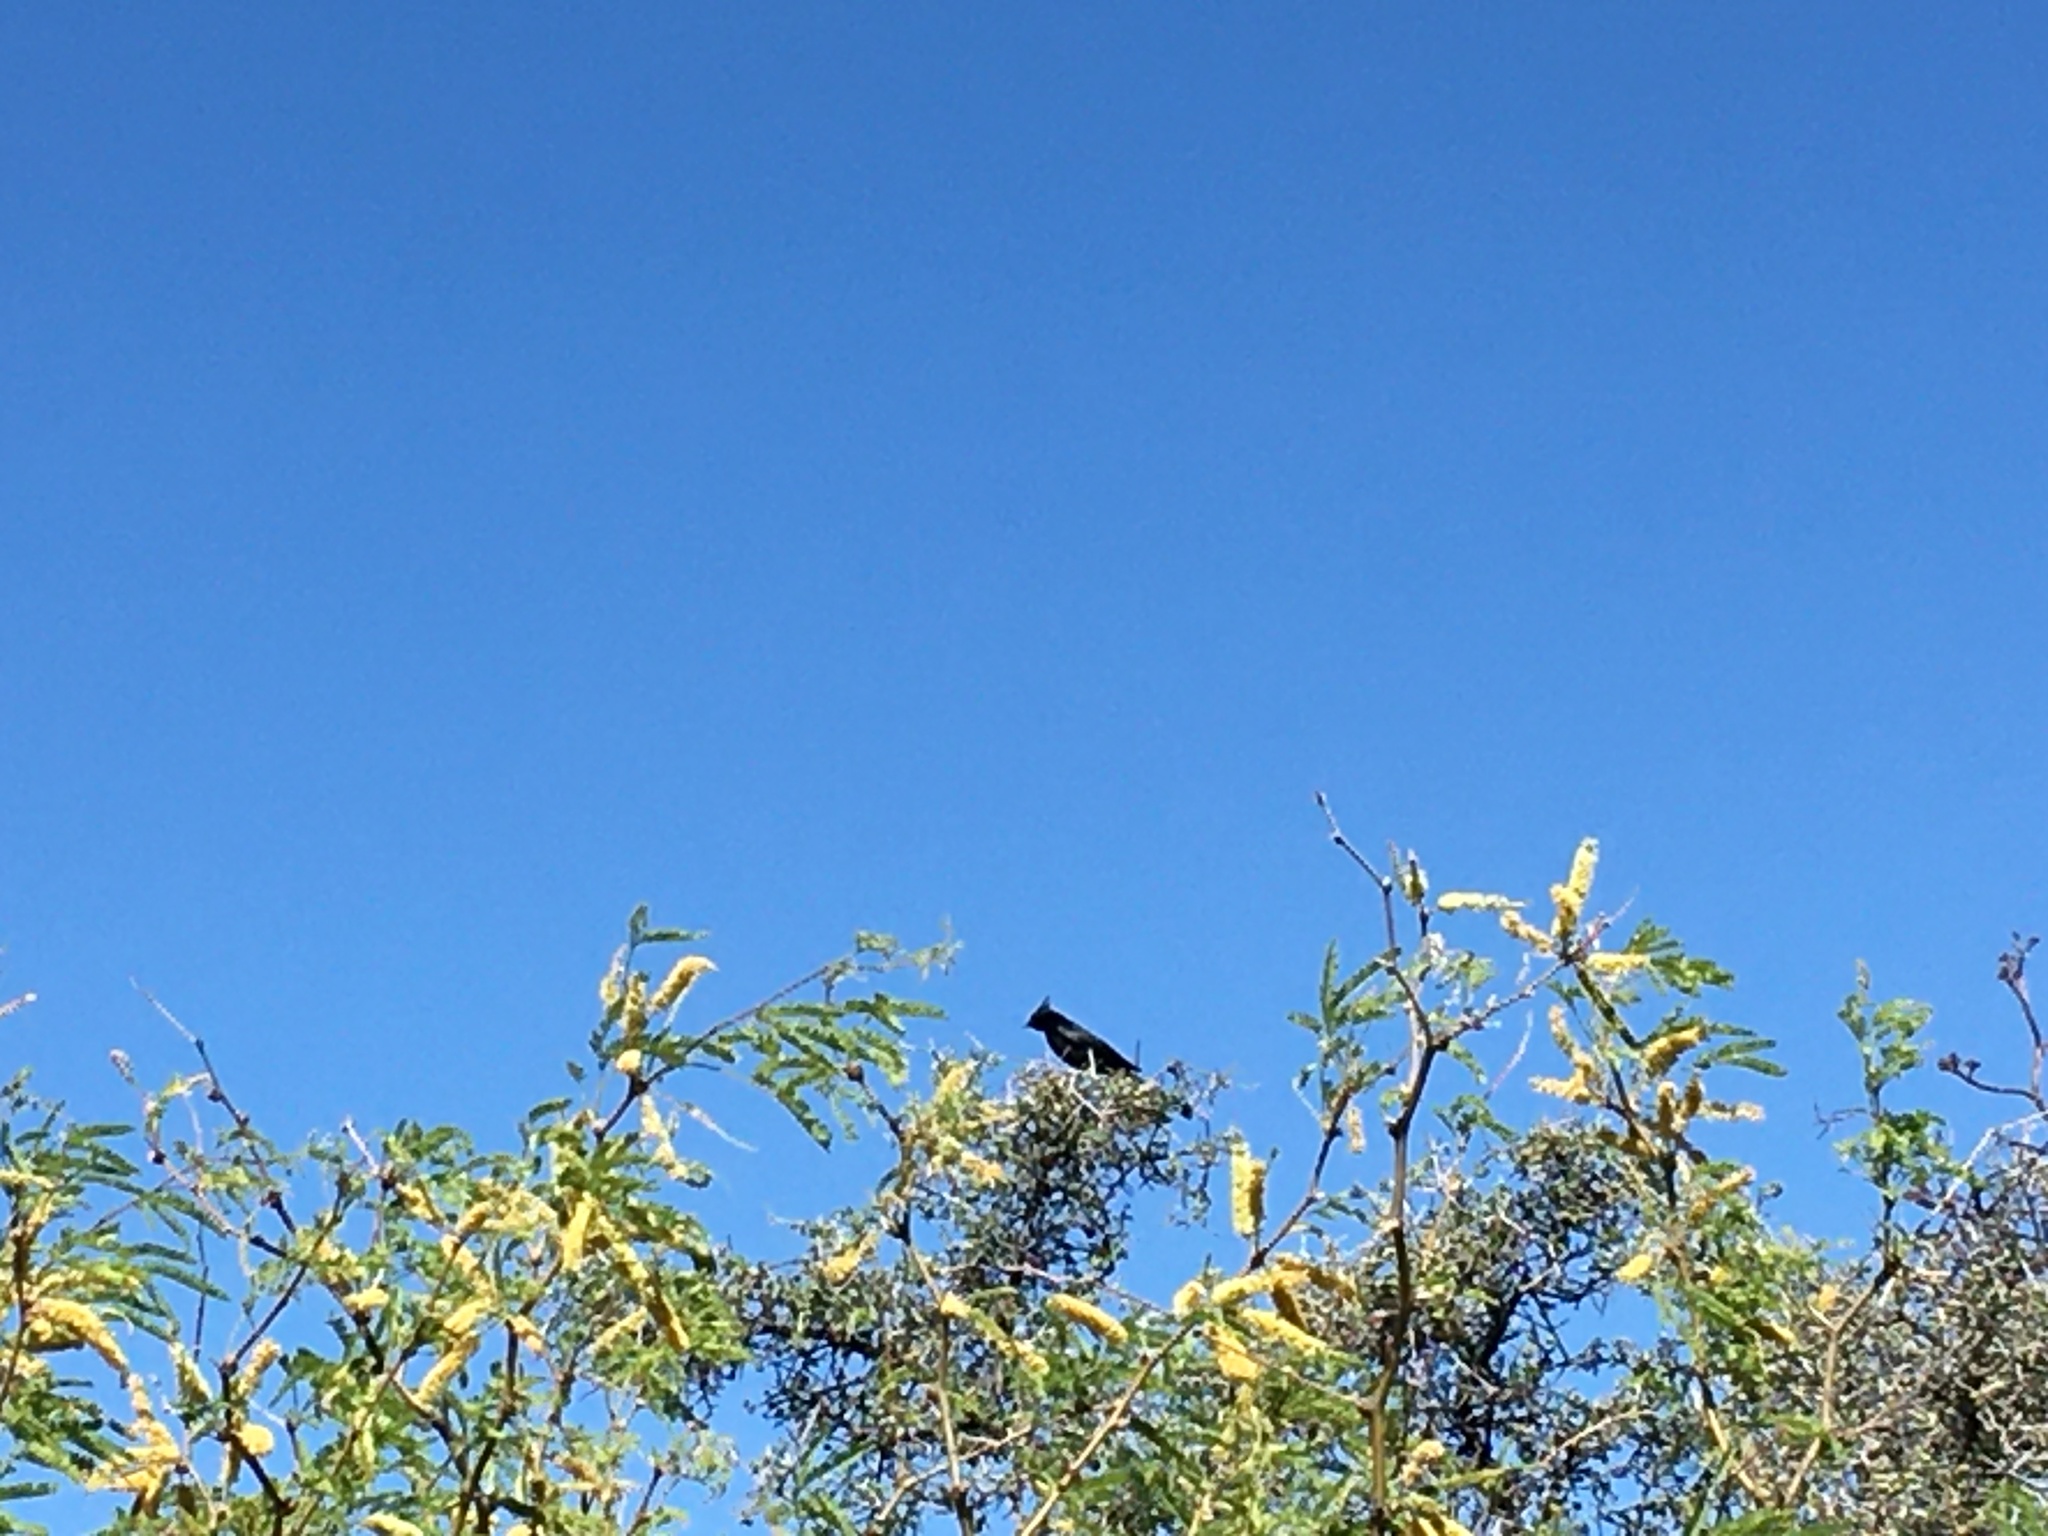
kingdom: Animalia
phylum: Chordata
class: Aves
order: Passeriformes
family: Ptilogonatidae
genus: Phainopepla
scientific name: Phainopepla nitens
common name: Phainopepla
